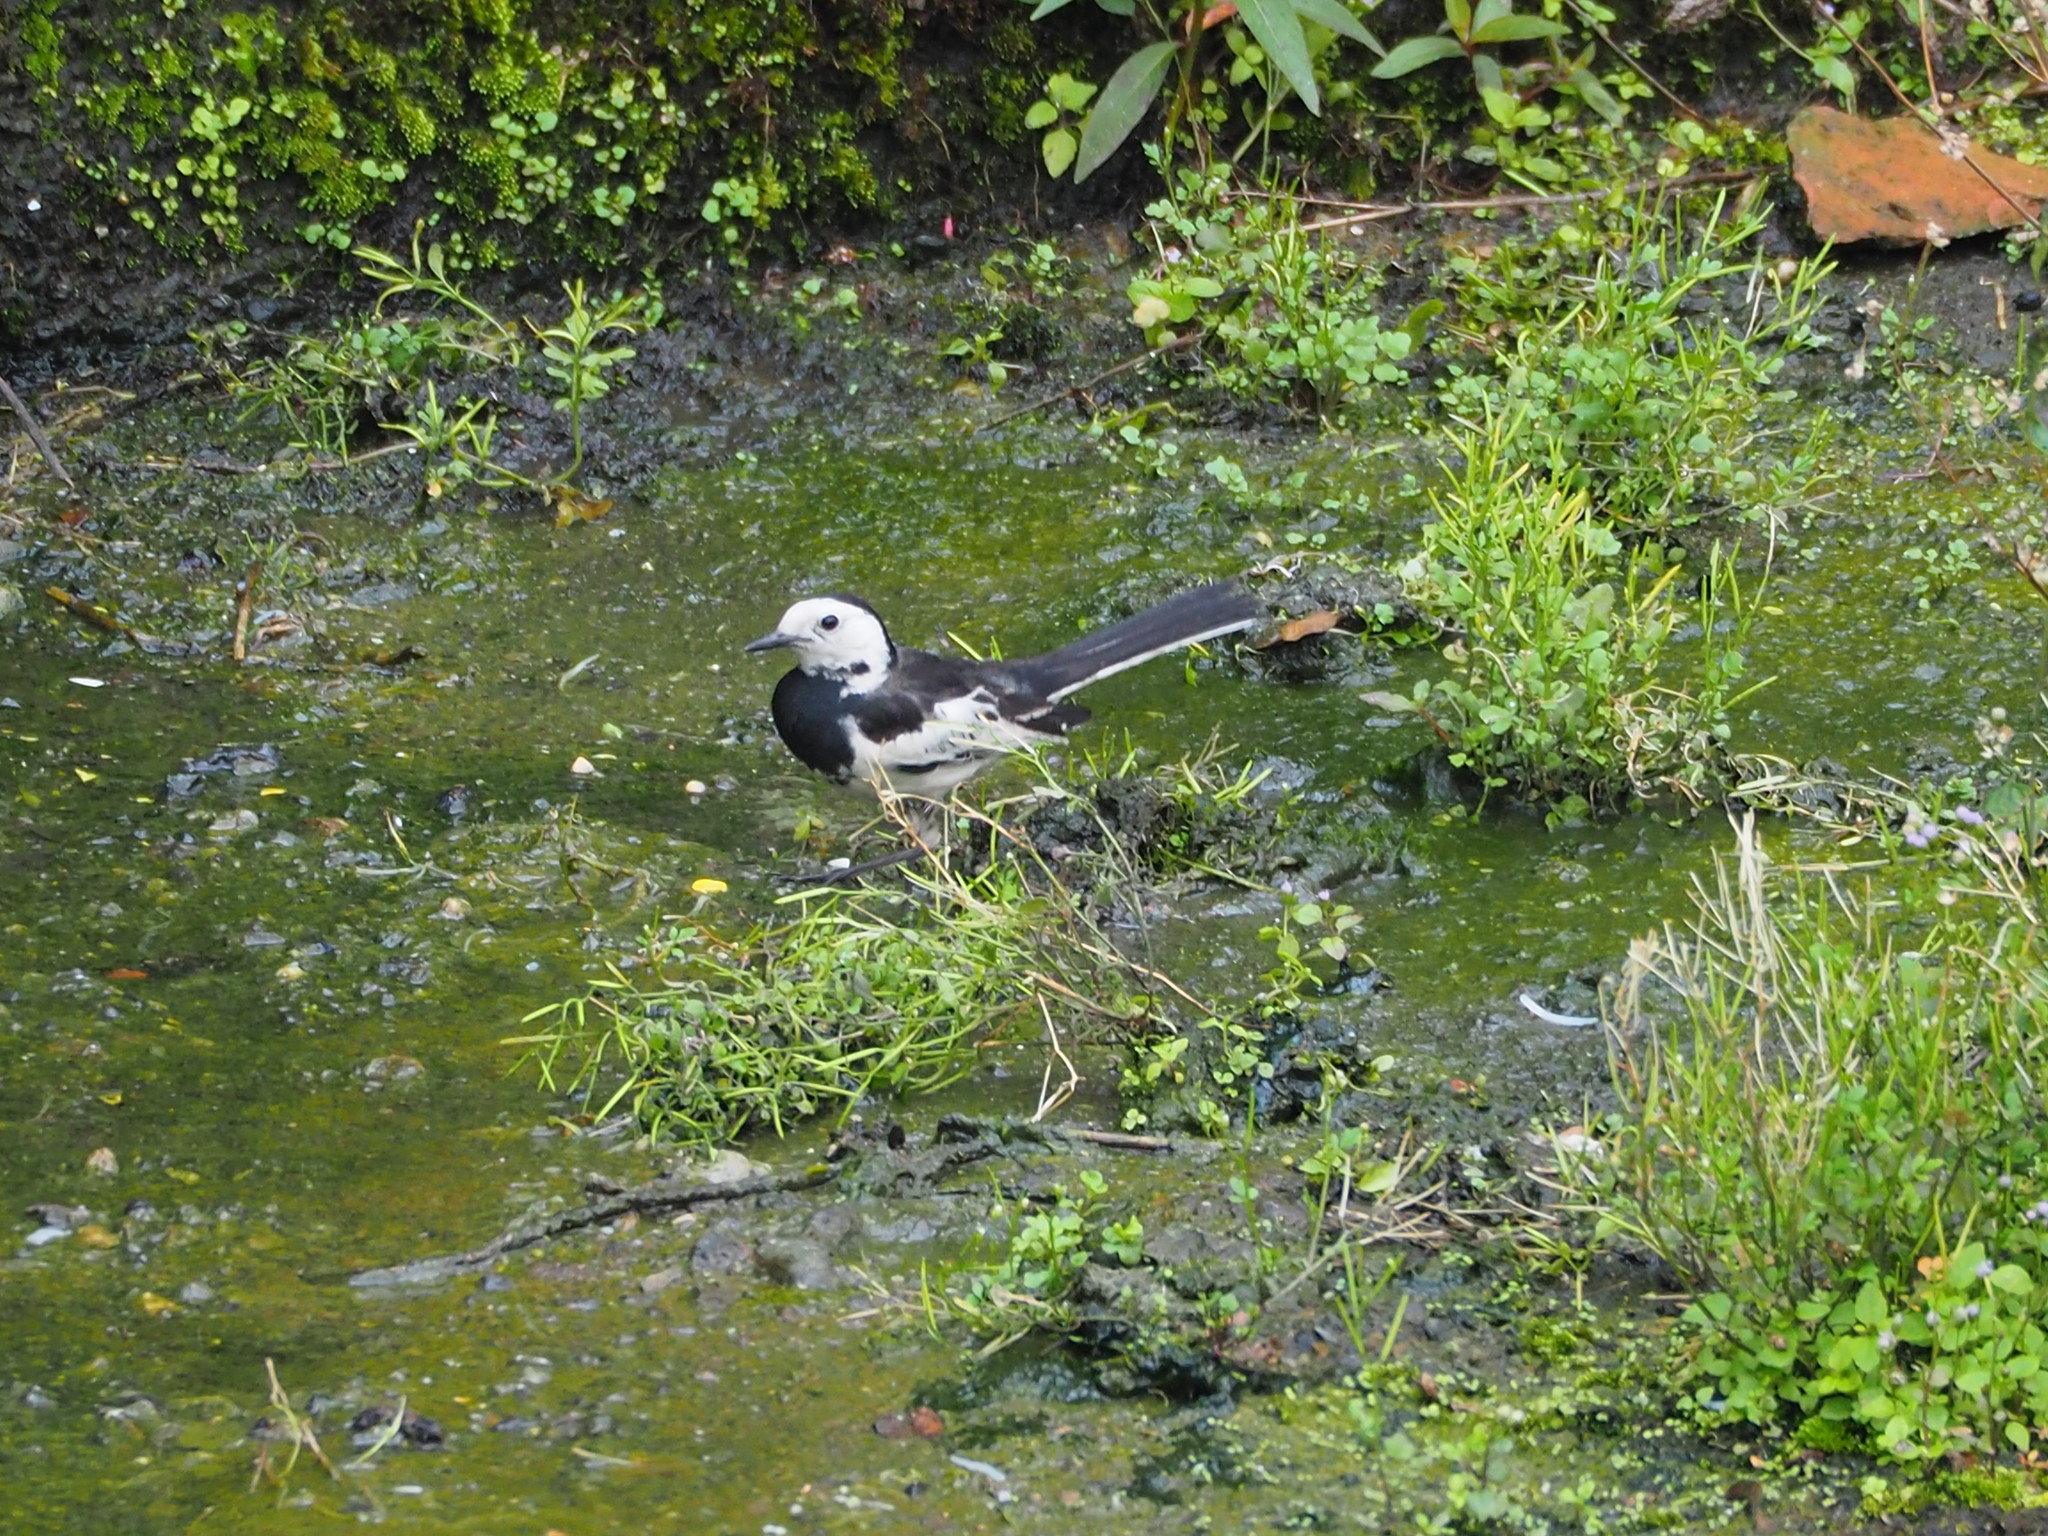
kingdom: Animalia
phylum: Chordata
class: Aves
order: Passeriformes
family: Motacillidae
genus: Motacilla
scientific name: Motacilla alba
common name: White wagtail
